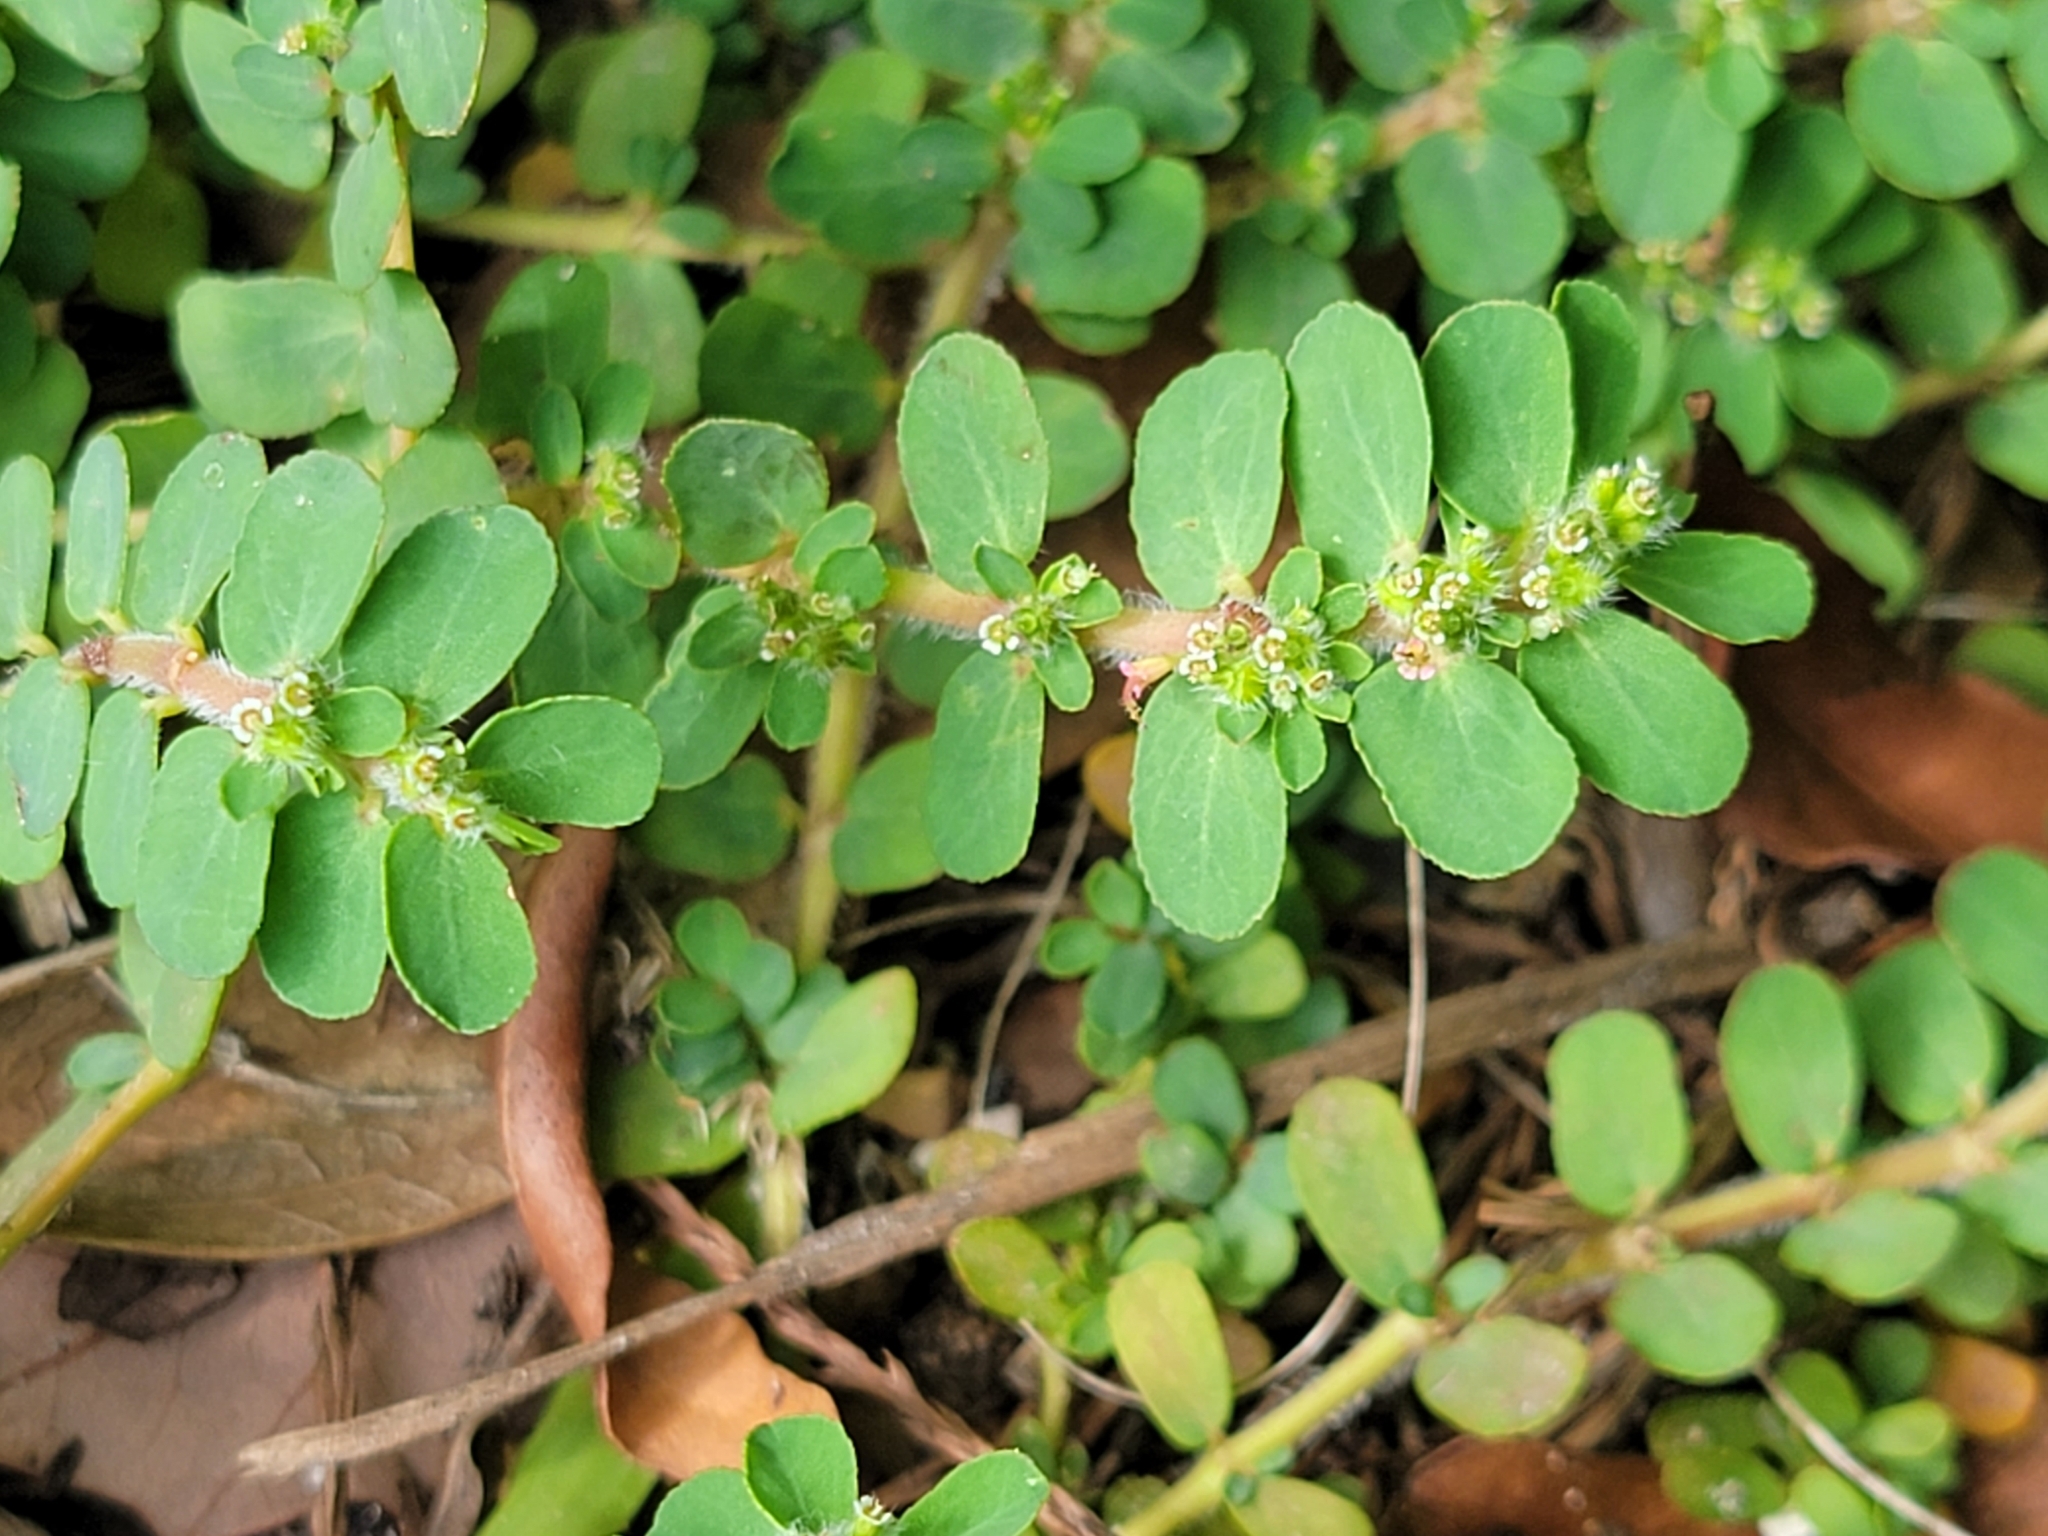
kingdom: Plantae
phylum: Tracheophyta
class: Magnoliopsida
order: Malpighiales
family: Euphorbiaceae
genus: Euphorbia
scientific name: Euphorbia mendezii
